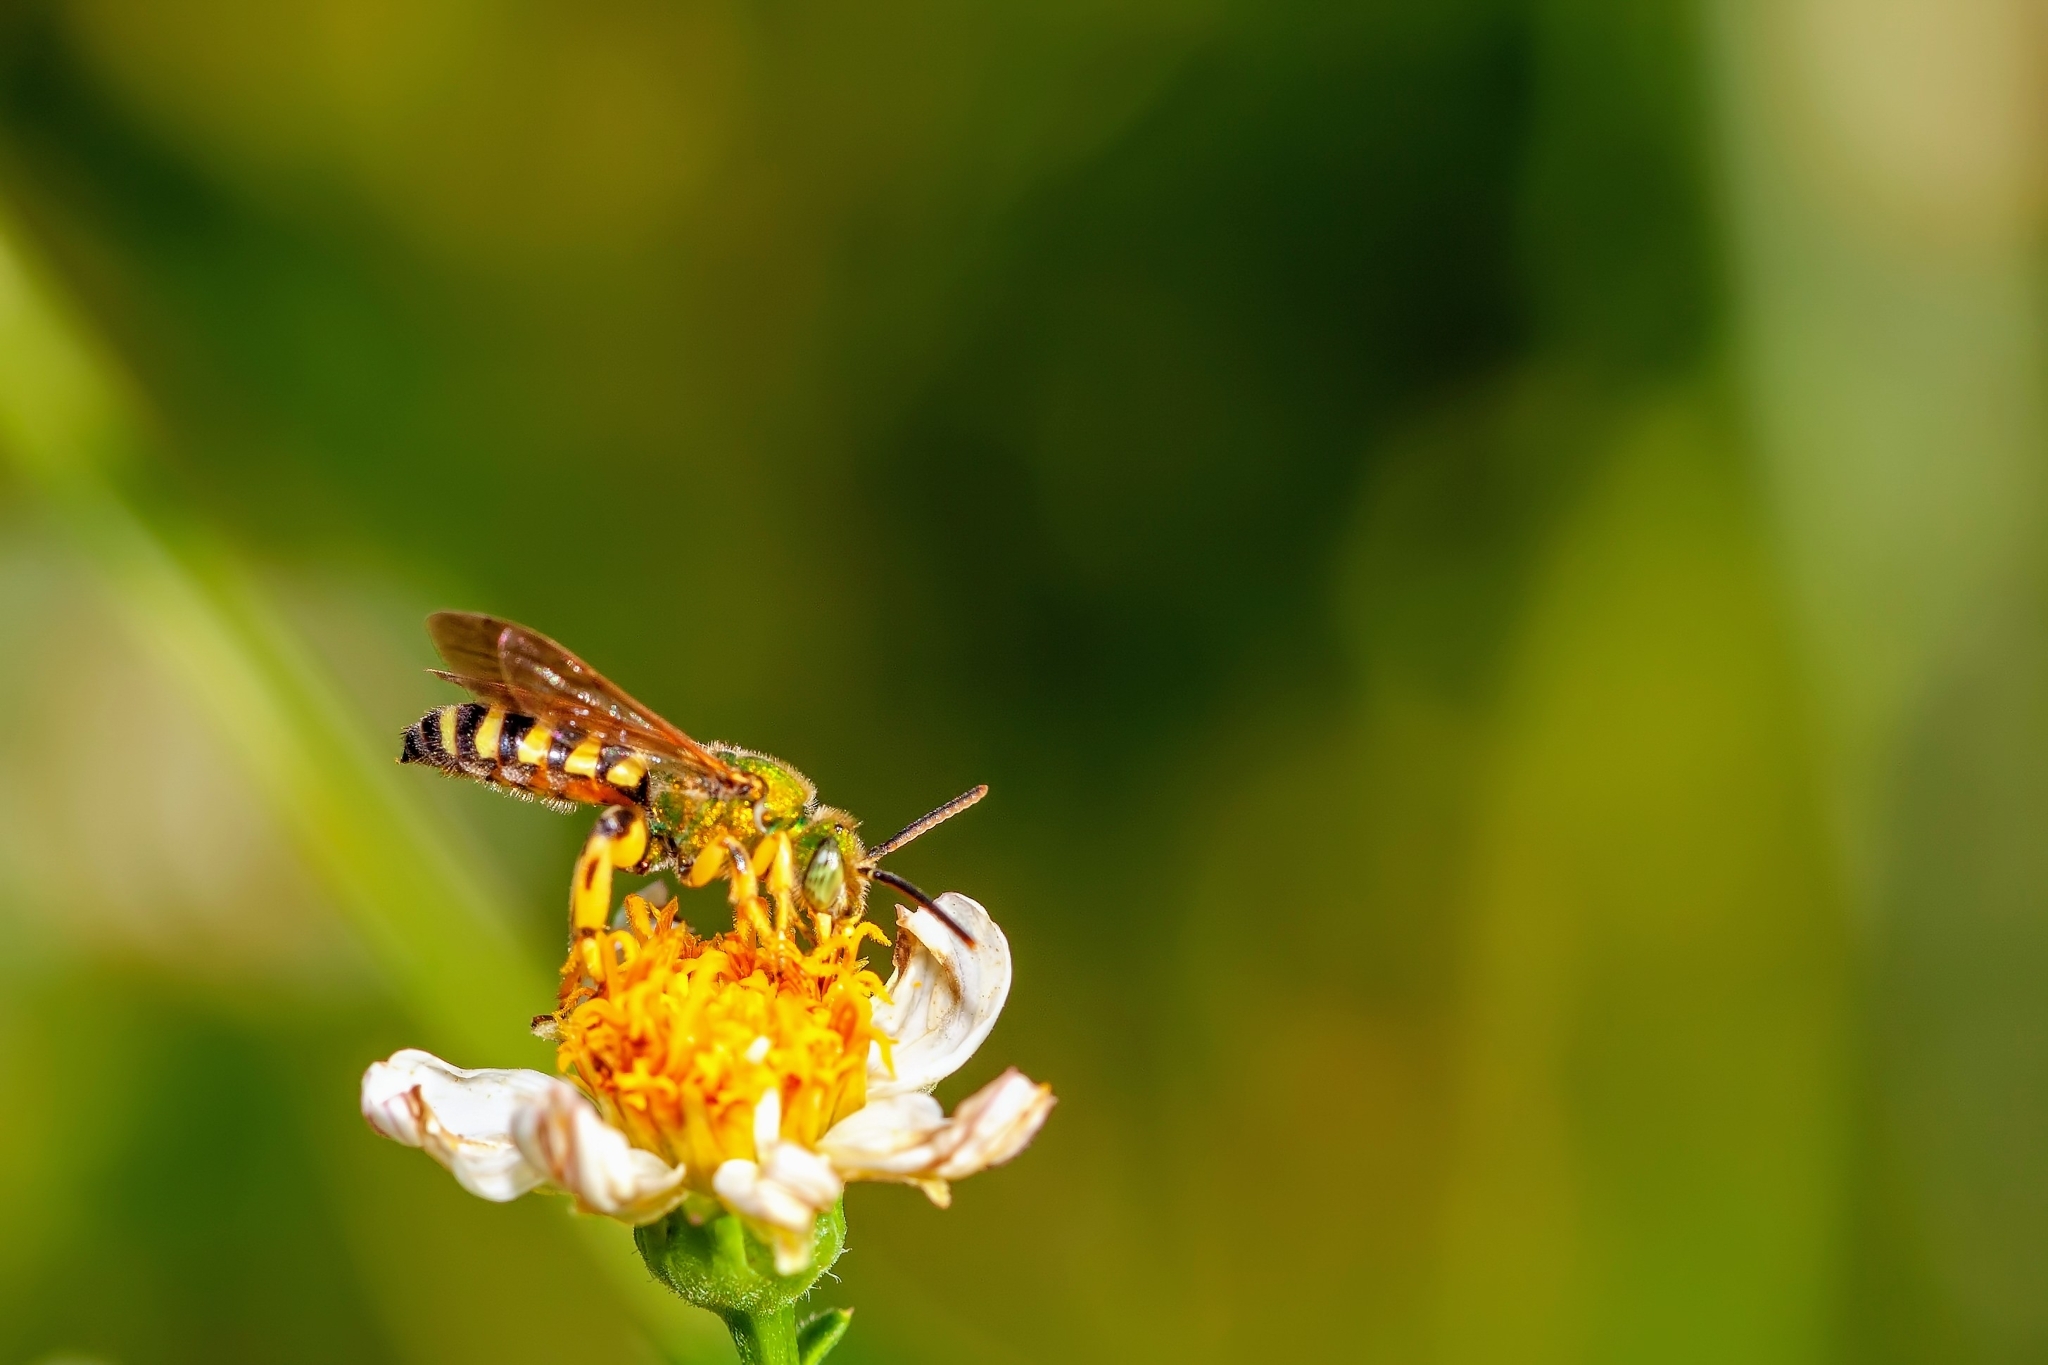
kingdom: Animalia
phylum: Arthropoda
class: Insecta
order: Hymenoptera
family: Halictidae
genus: Agapostemon
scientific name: Agapostemon splendens
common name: Brown-winged striped sweat bee
